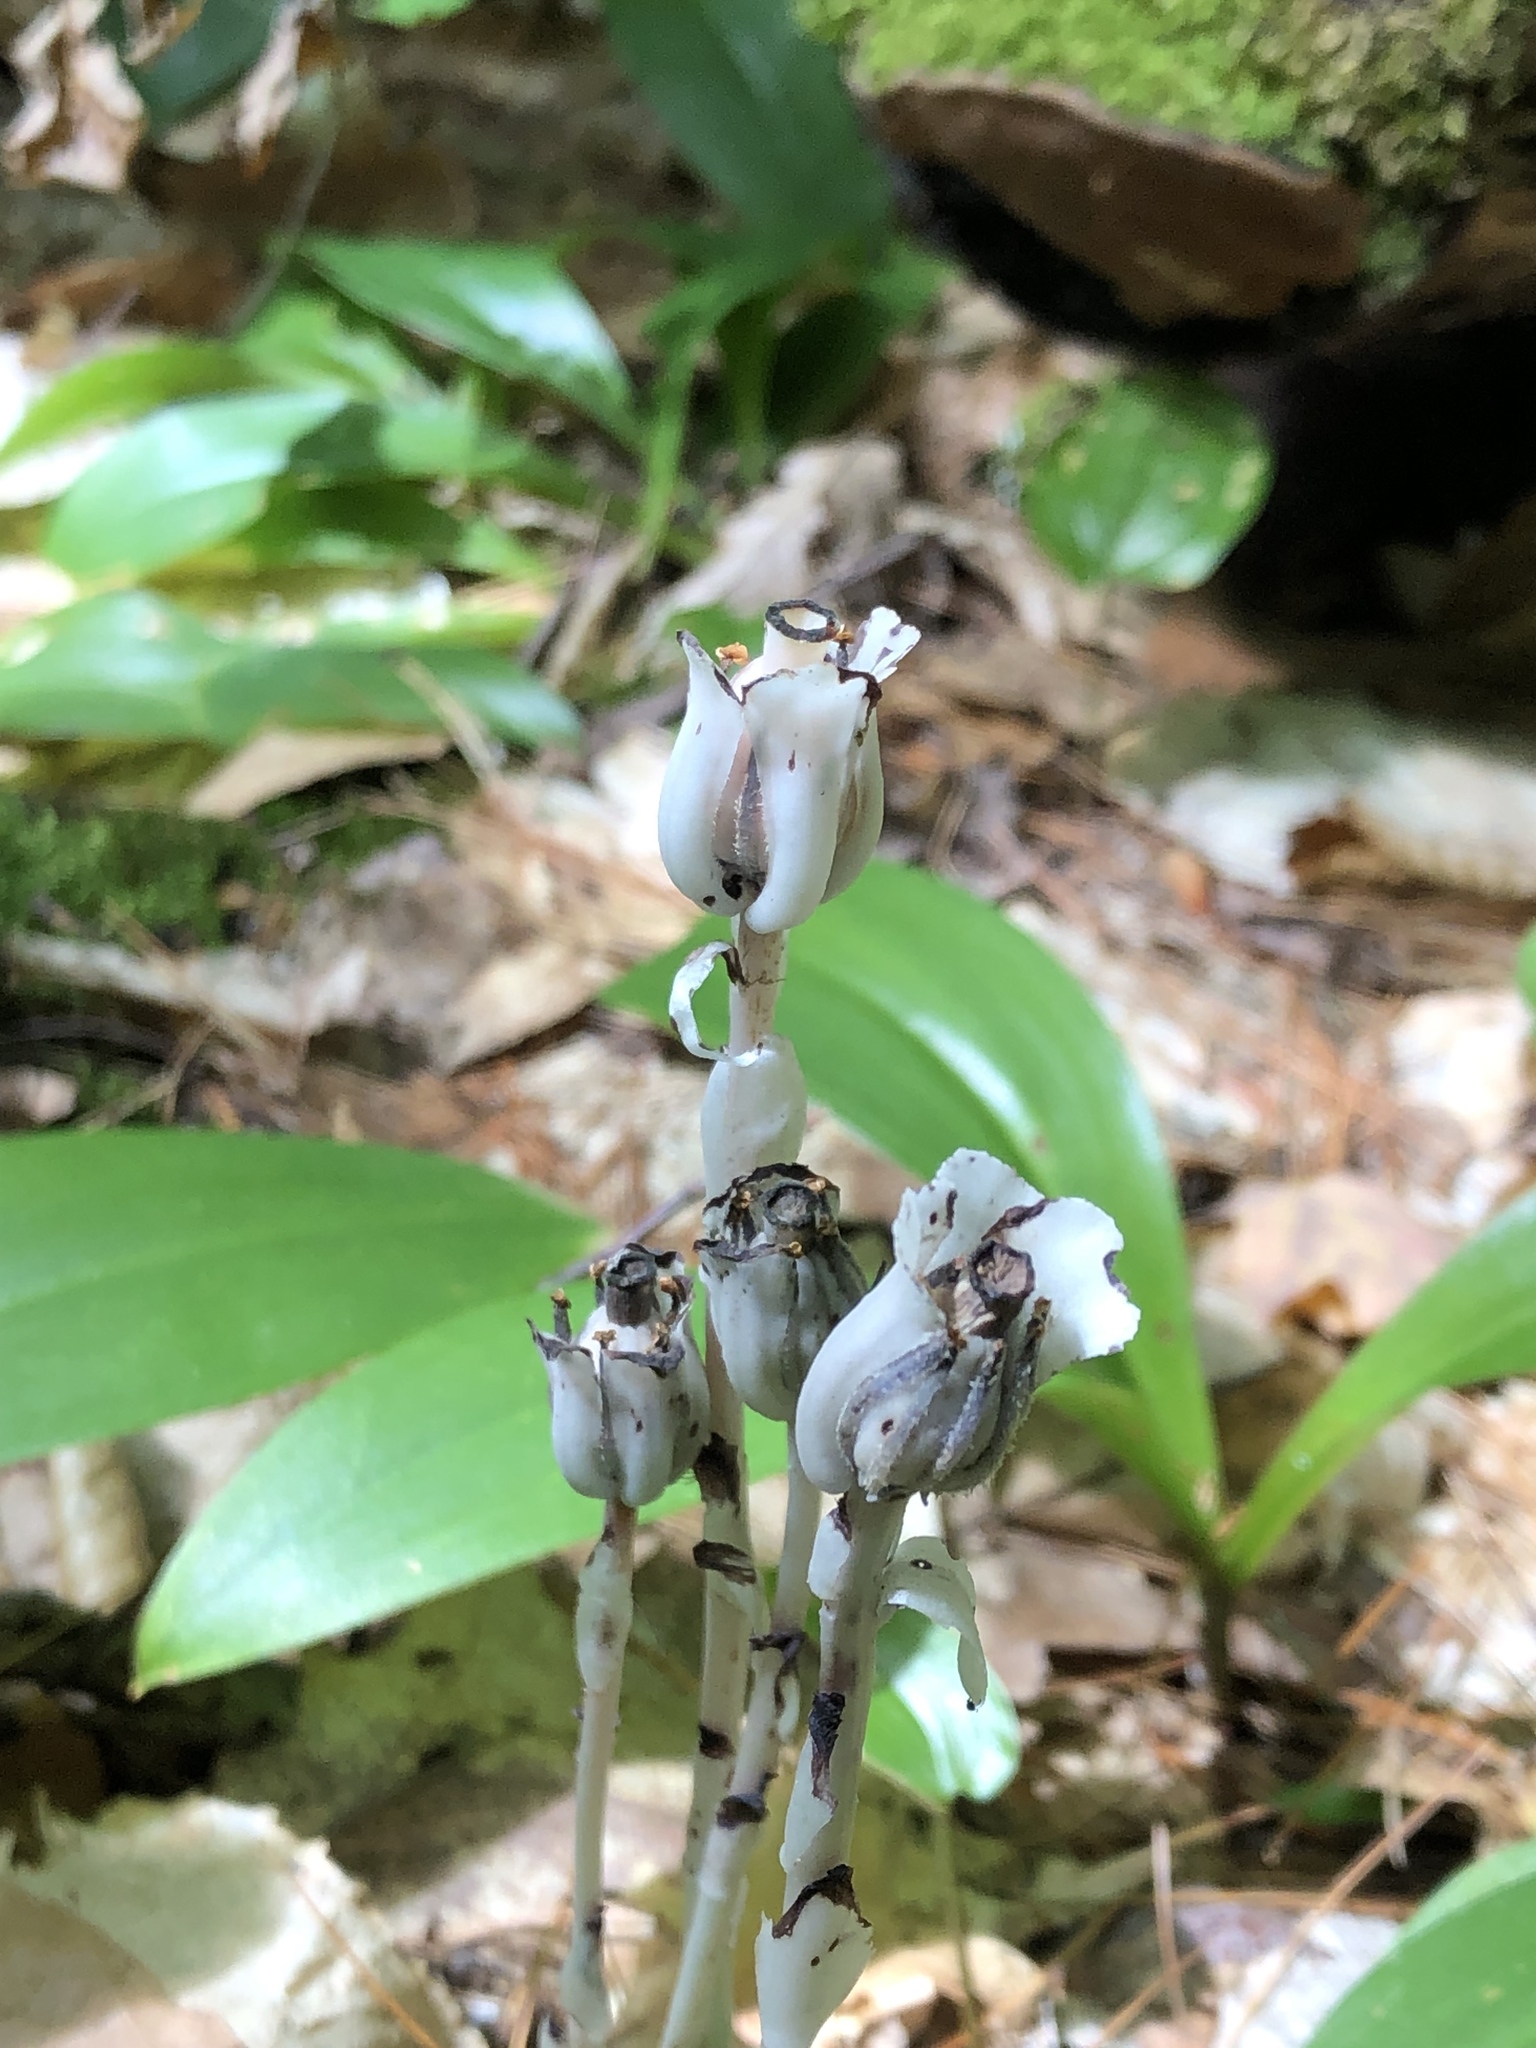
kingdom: Plantae
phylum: Tracheophyta
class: Magnoliopsida
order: Ericales
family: Ericaceae
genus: Monotropa
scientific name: Monotropa uniflora
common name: Convulsion root
